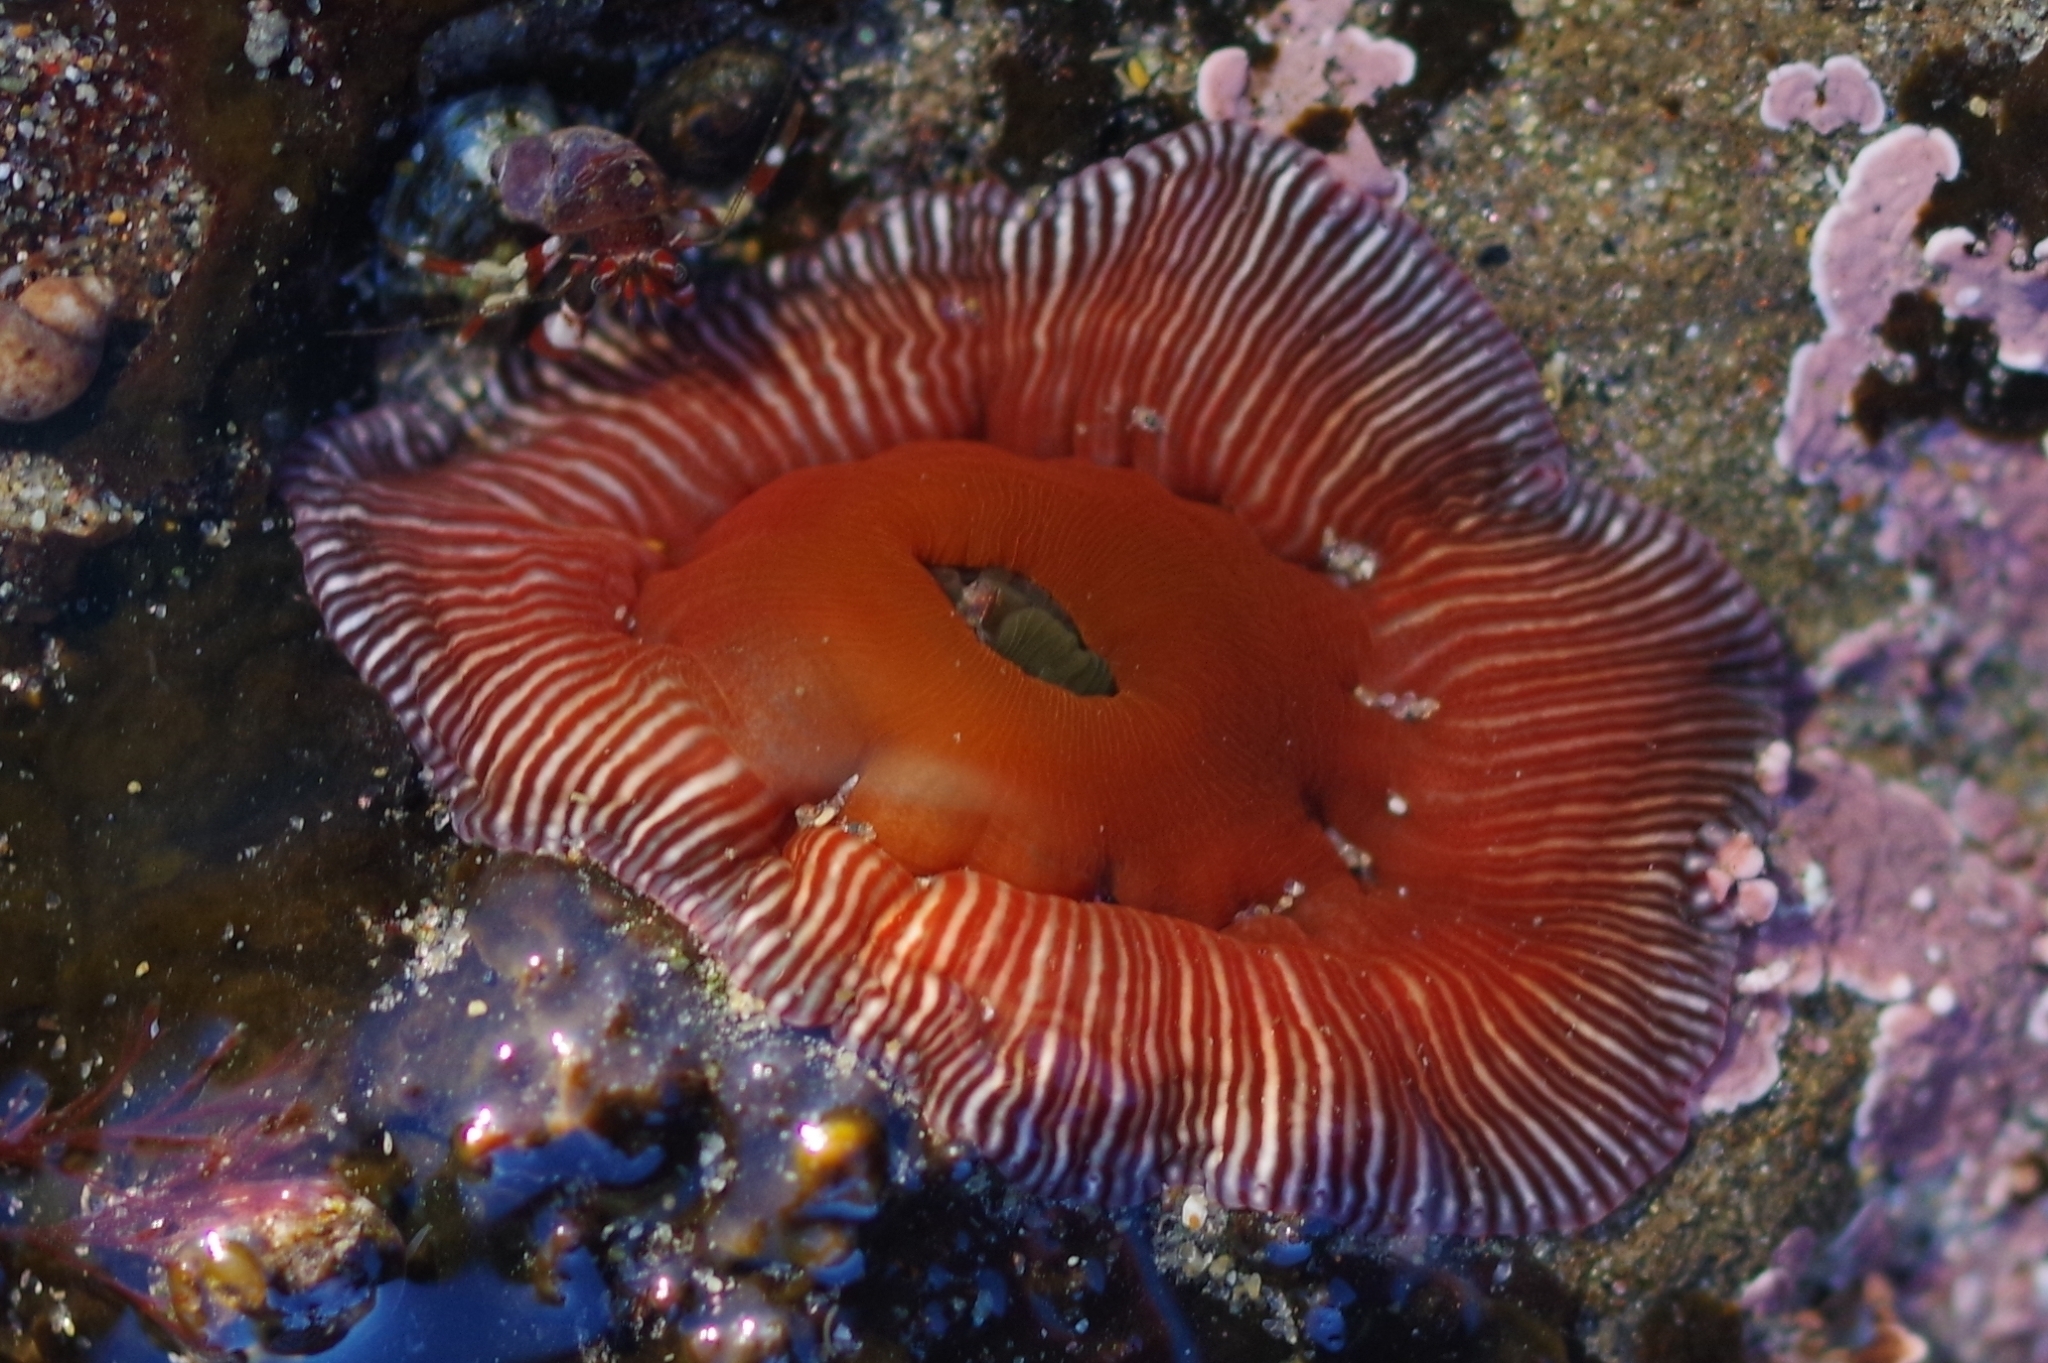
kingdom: Animalia
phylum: Cnidaria
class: Anthozoa
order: Actiniaria
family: Actiniidae
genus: Epiactis
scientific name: Epiactis prolifera
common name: Brooding anemone
